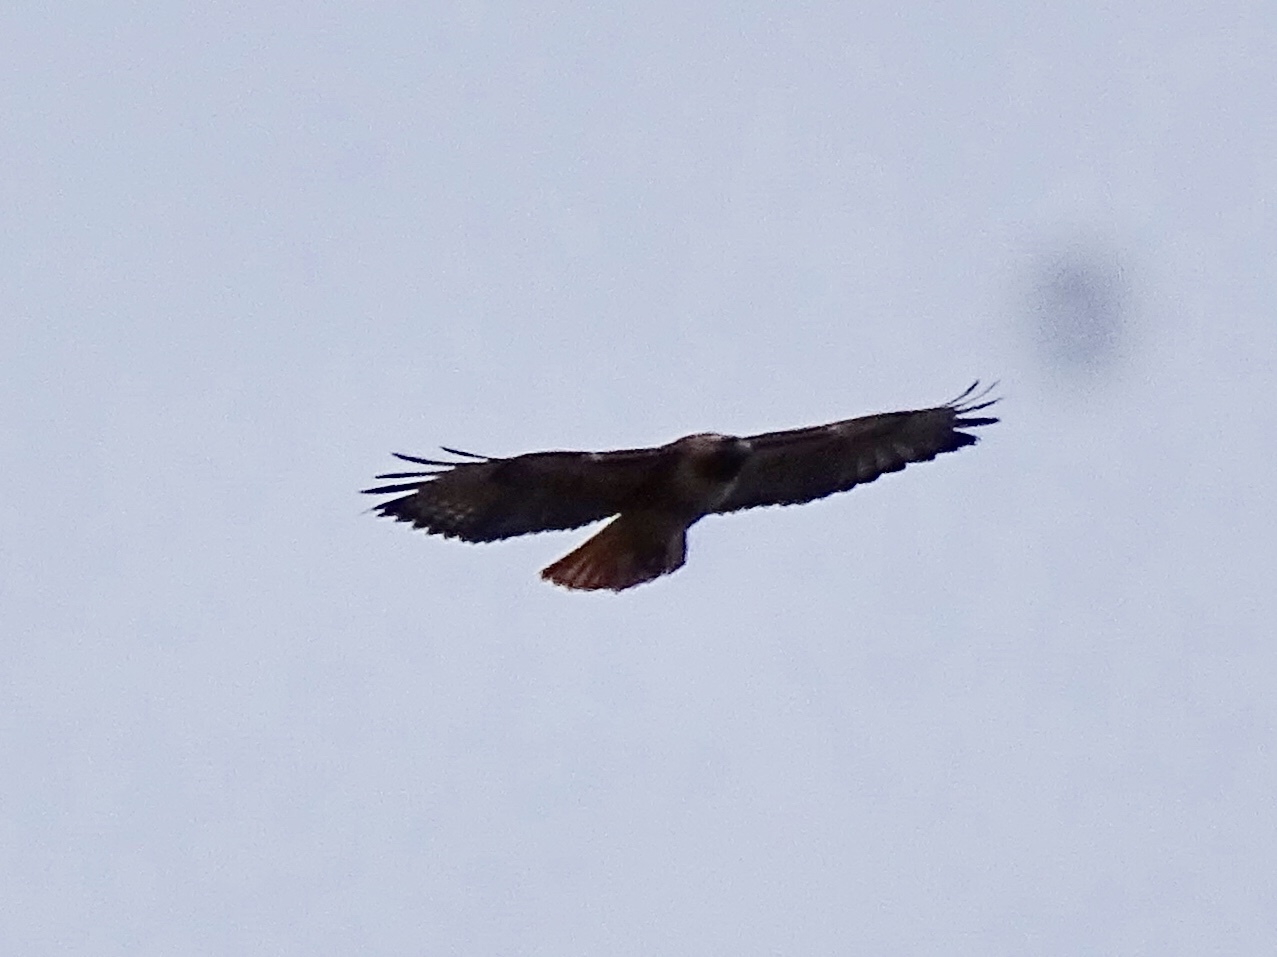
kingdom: Animalia
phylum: Chordata
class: Aves
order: Accipitriformes
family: Accipitridae
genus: Buteo
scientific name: Buteo jamaicensis
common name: Red-tailed hawk
